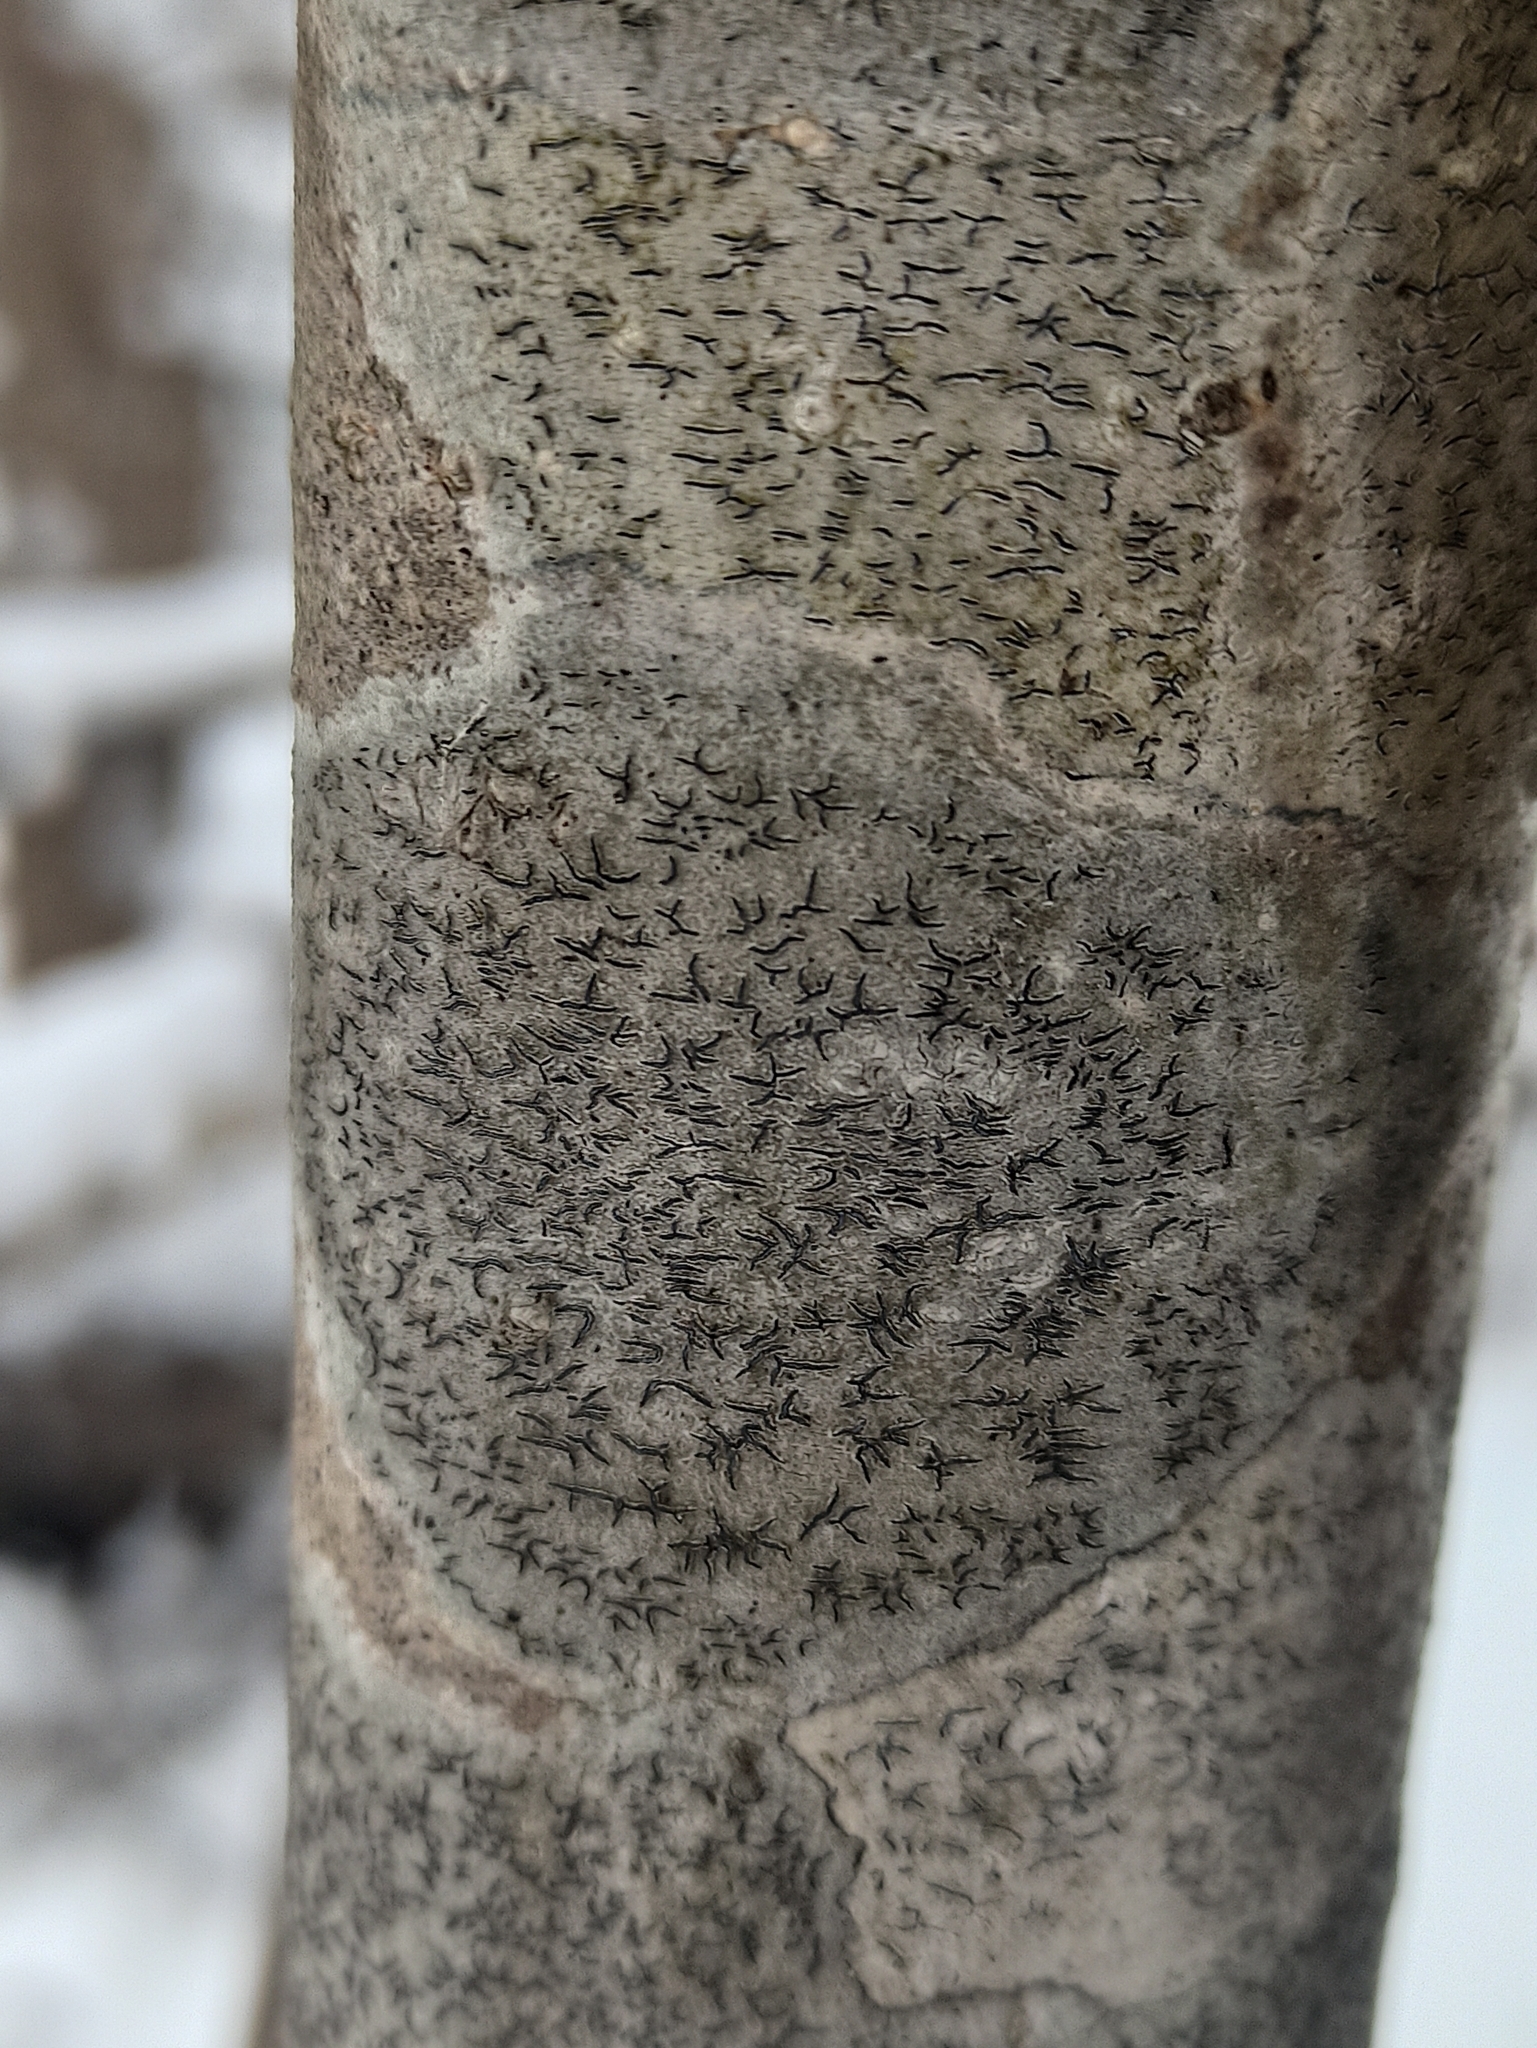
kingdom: Fungi
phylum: Ascomycota
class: Lecanoromycetes
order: Ostropales
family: Graphidaceae
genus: Graphis
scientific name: Graphis scripta
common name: Script lichen
